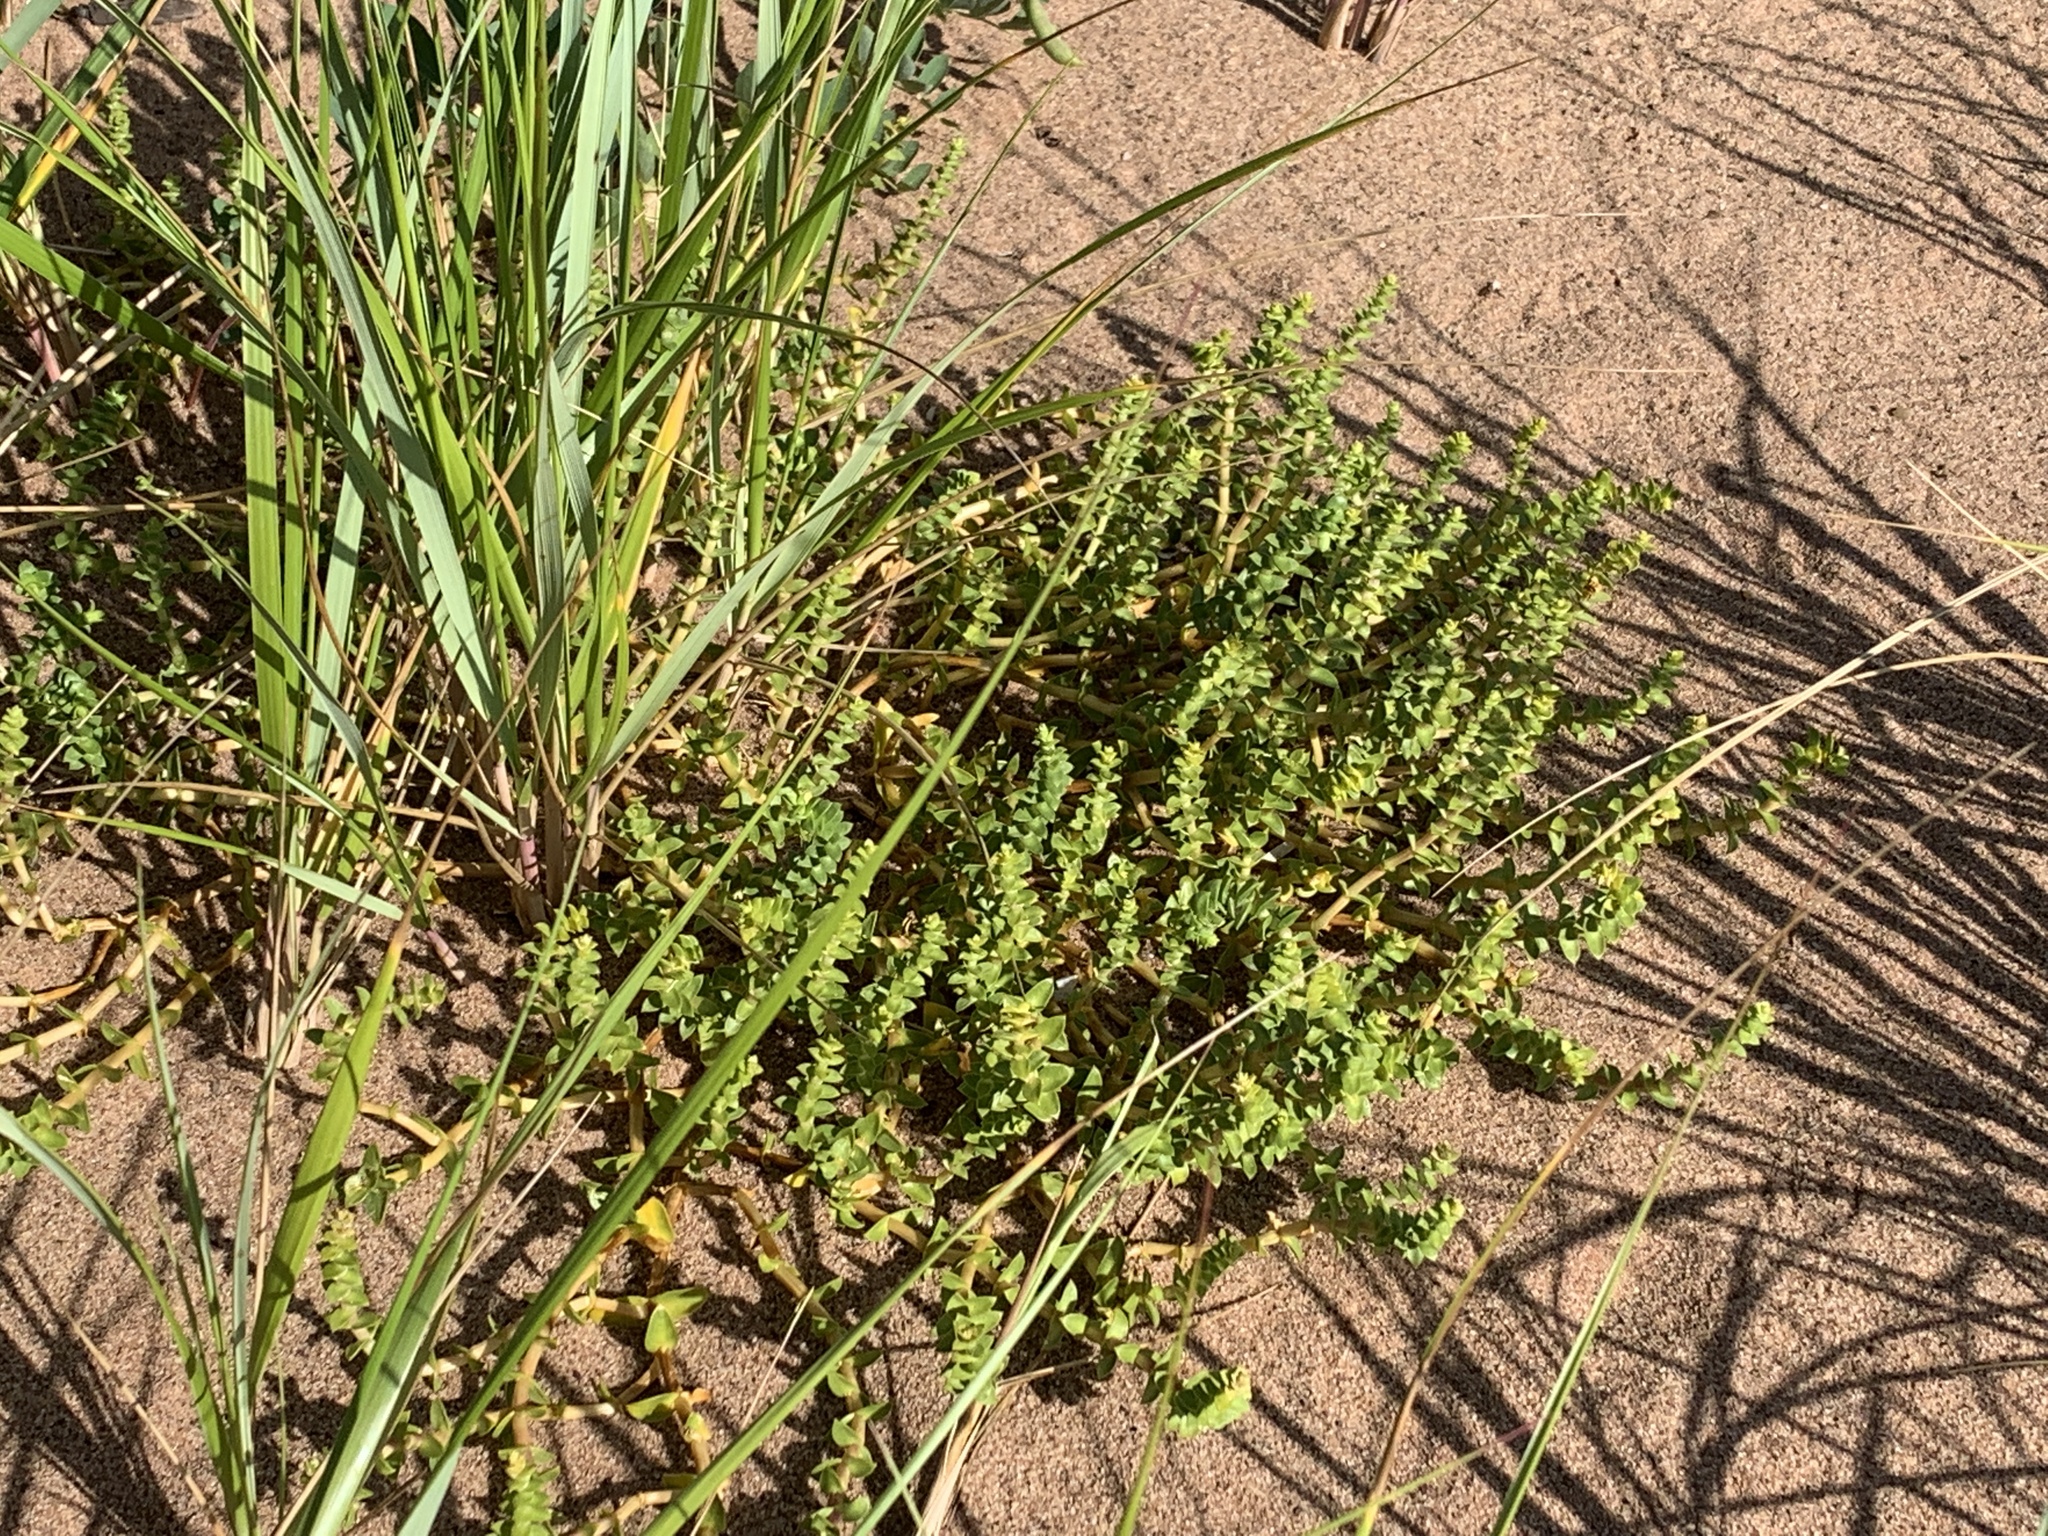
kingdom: Plantae
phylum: Tracheophyta
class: Magnoliopsida
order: Caryophyllales
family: Caryophyllaceae
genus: Honckenya
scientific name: Honckenya peploides
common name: Sea sandwort
